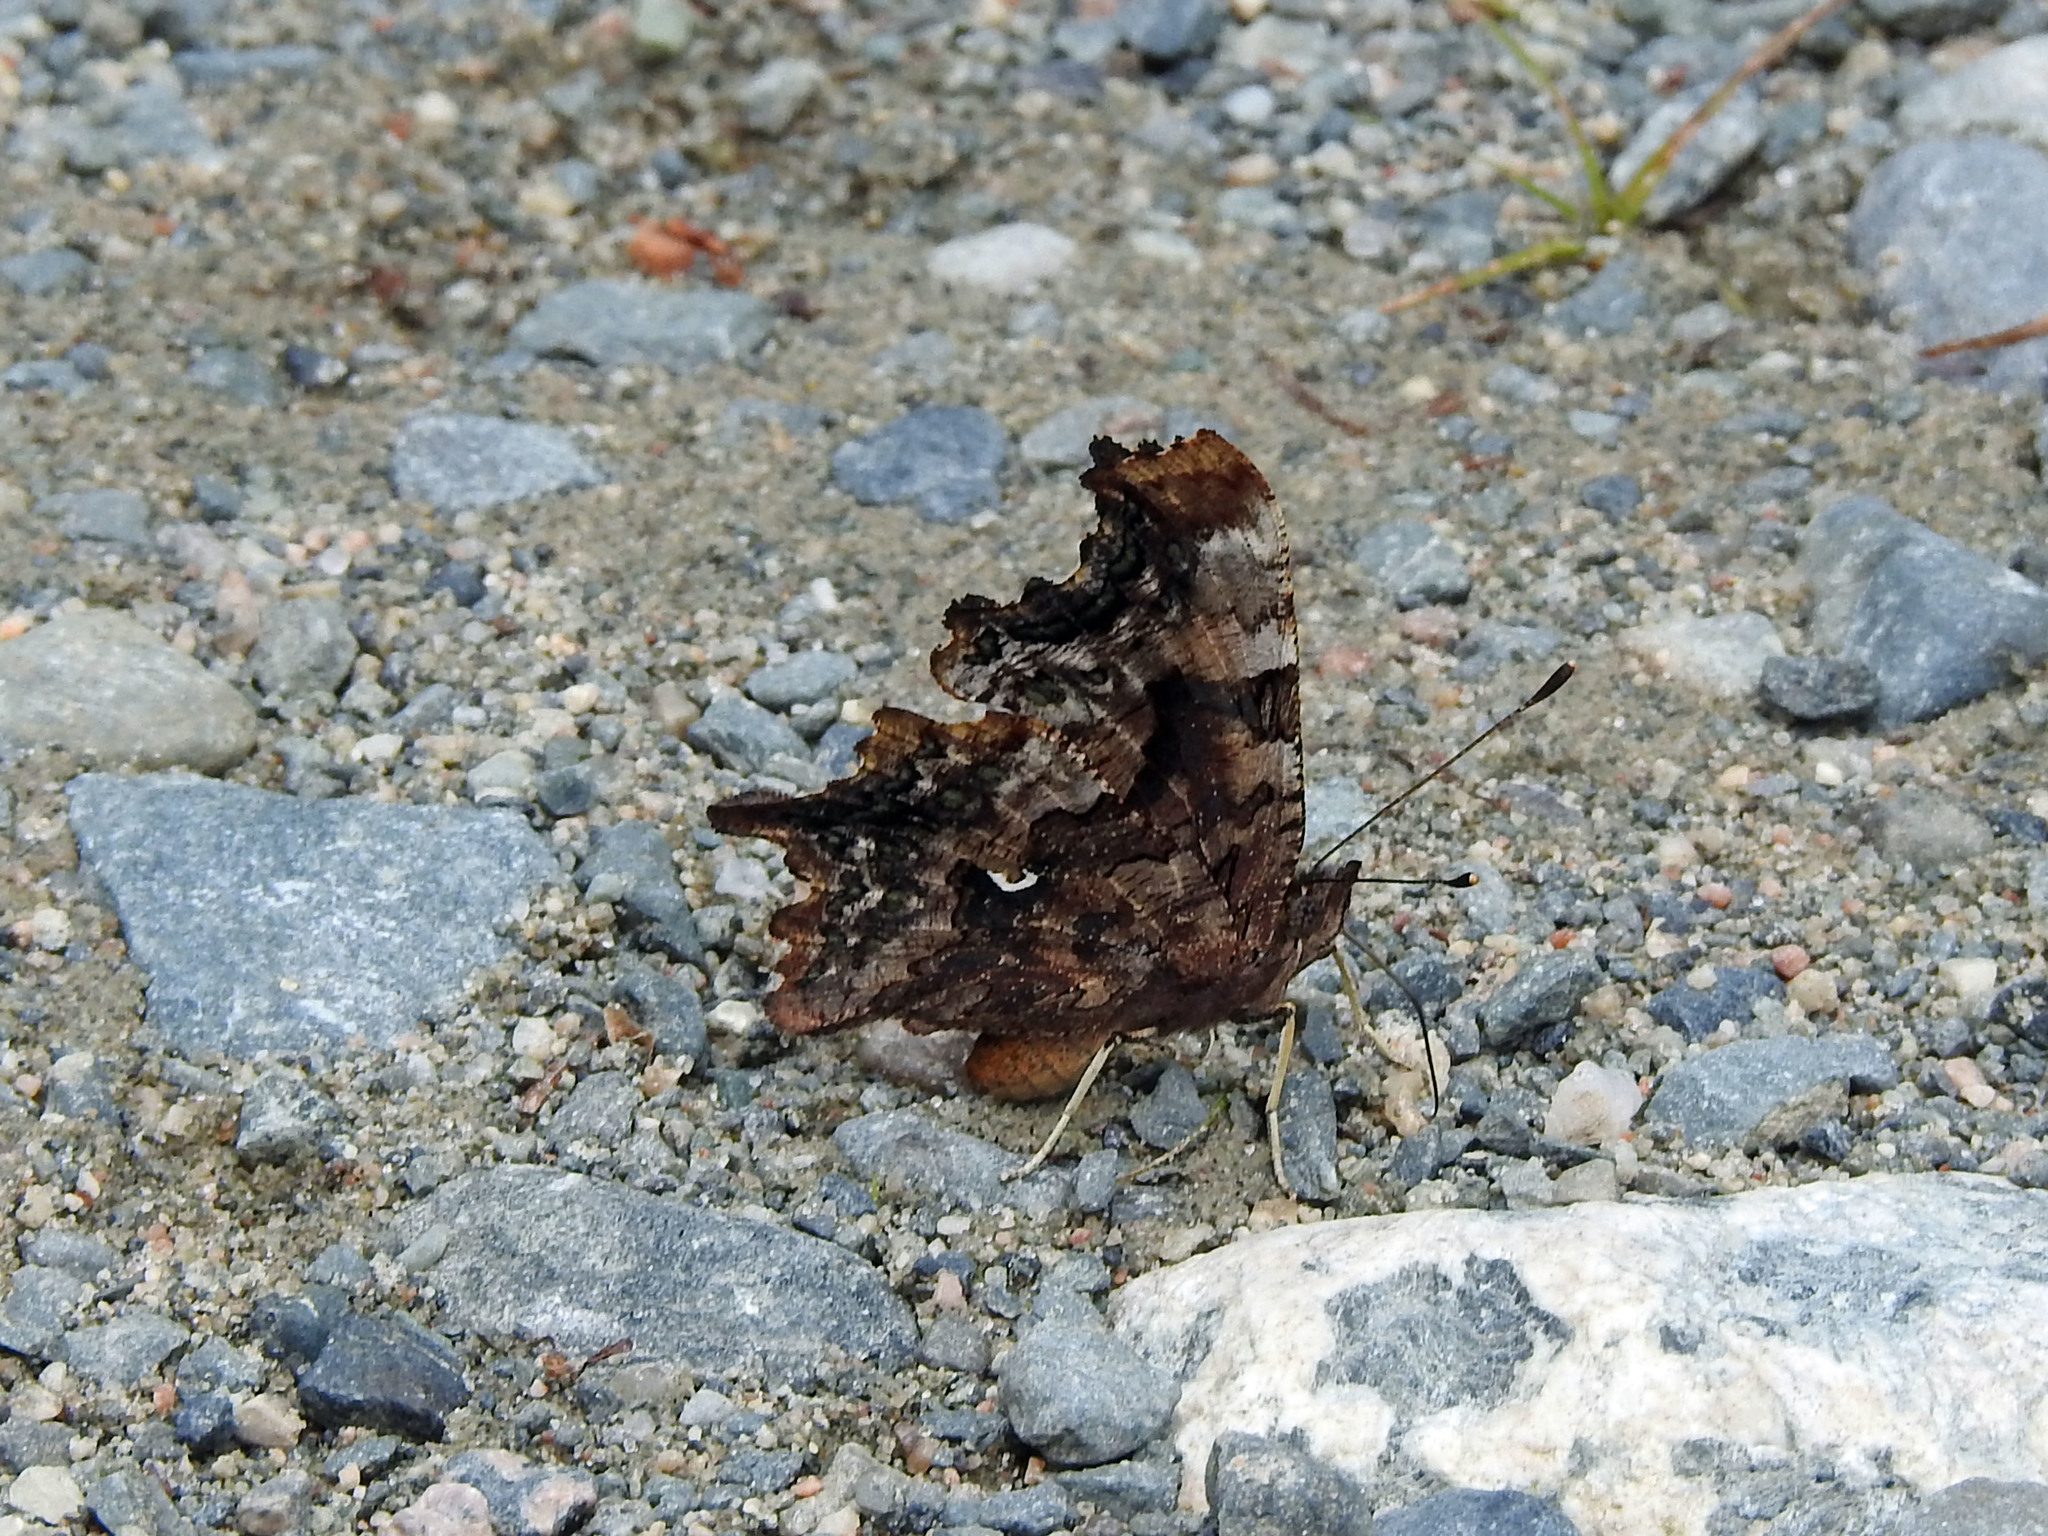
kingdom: Animalia
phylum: Arthropoda
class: Insecta
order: Lepidoptera
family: Nymphalidae
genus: Polygonia
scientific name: Polygonia faunus
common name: Green comma
